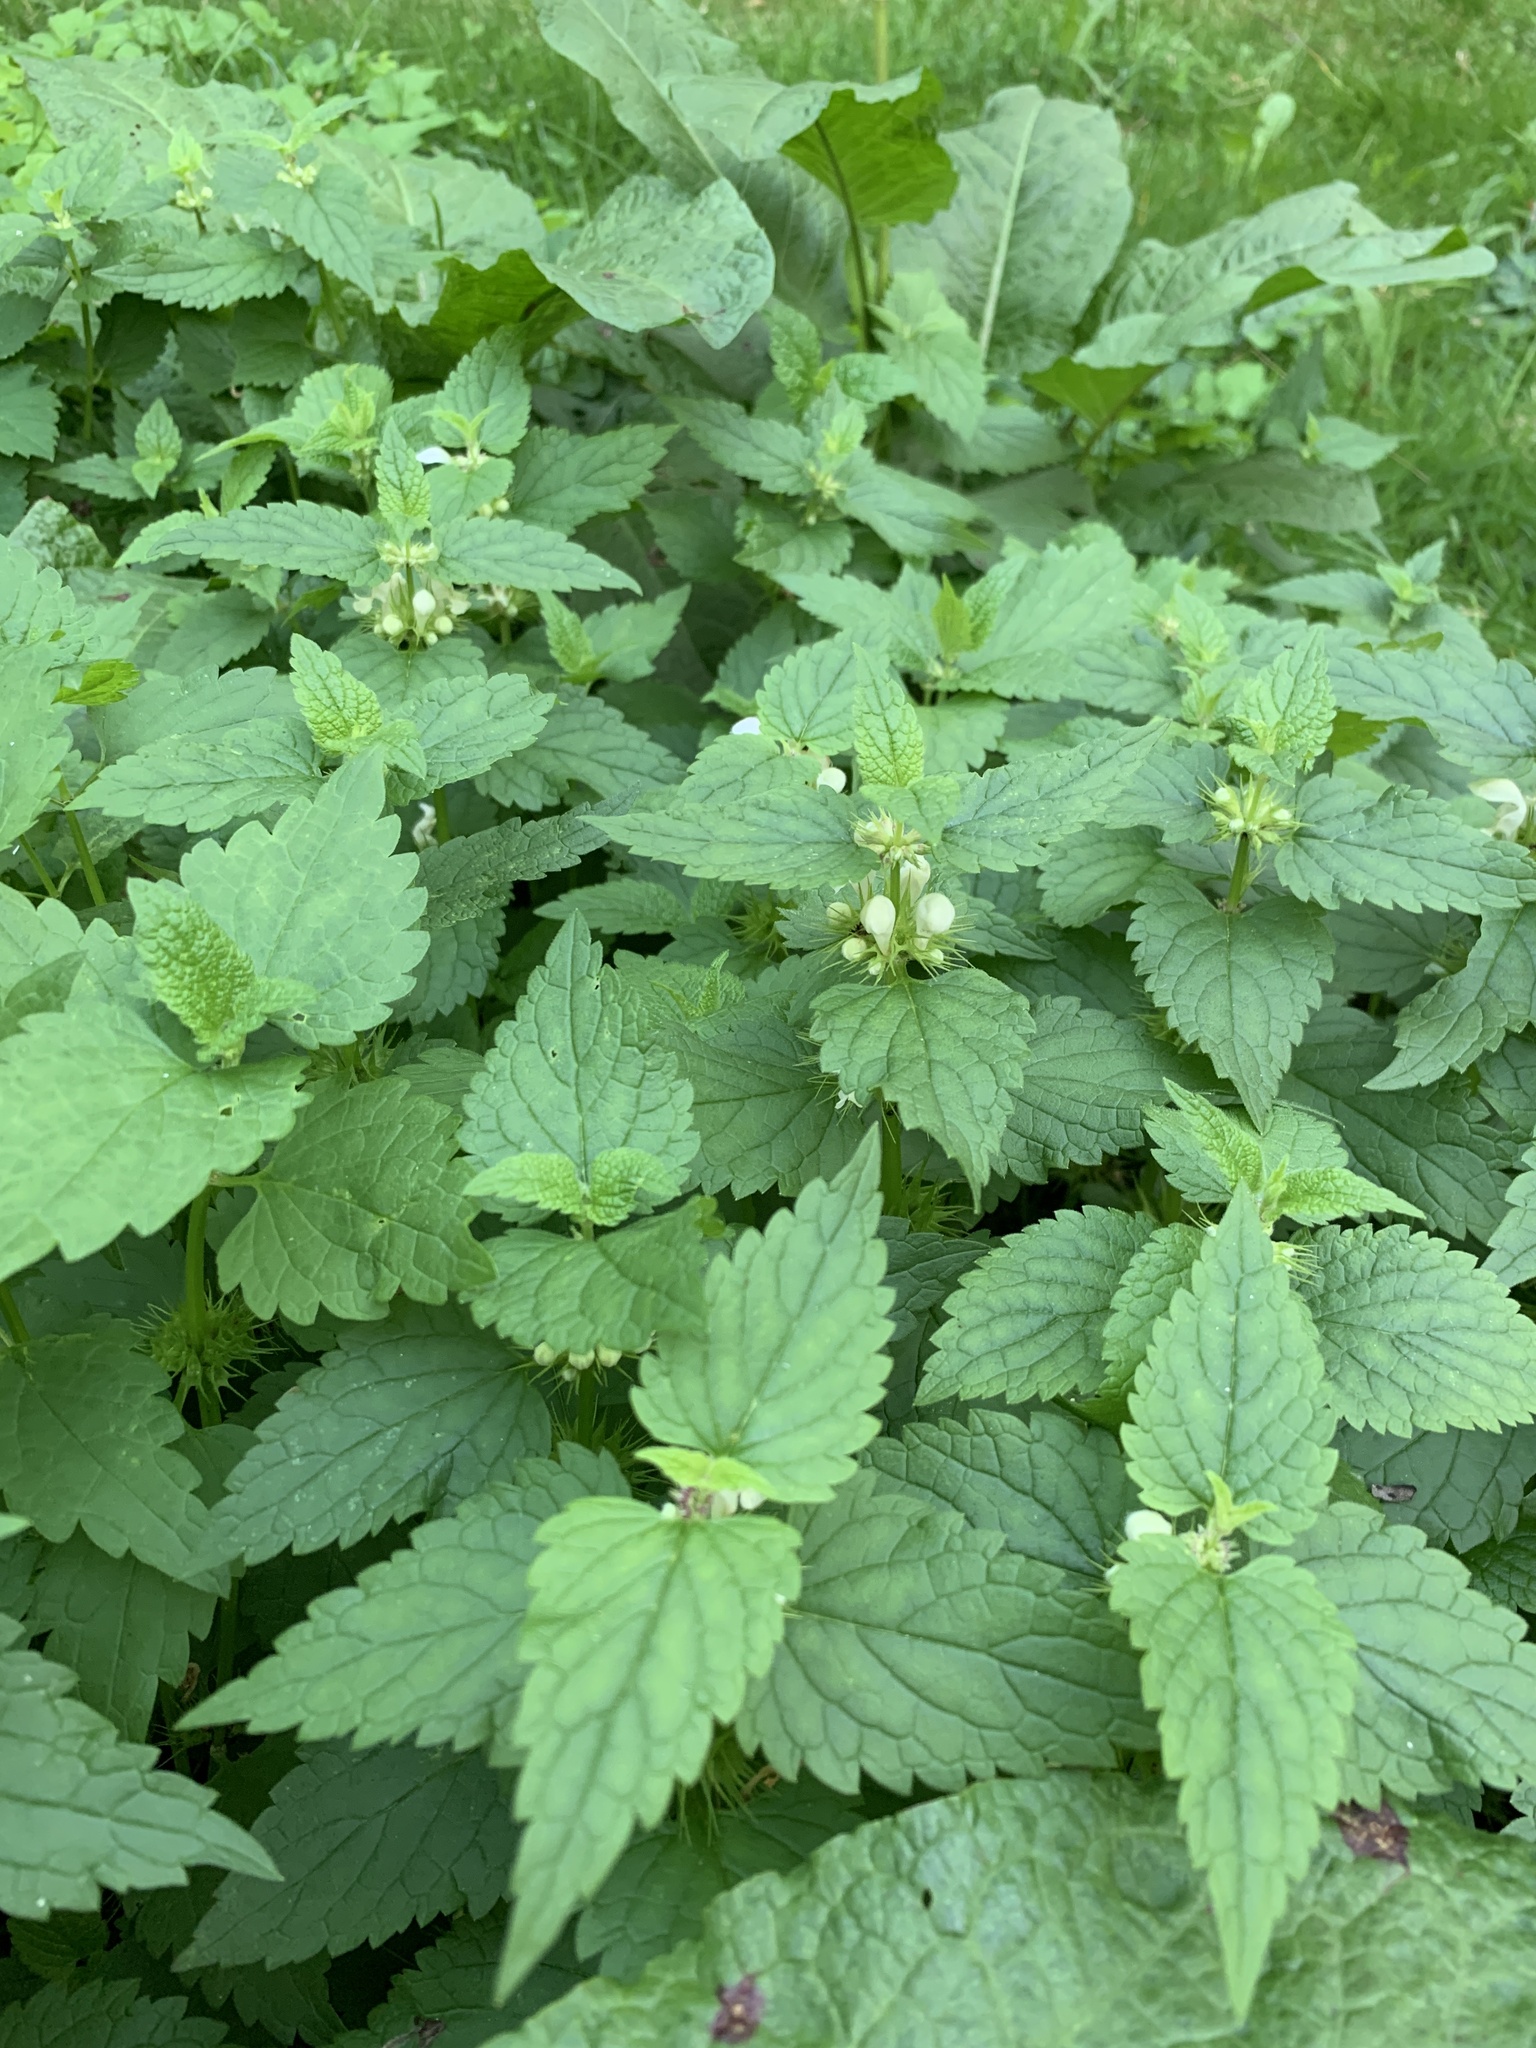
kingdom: Plantae
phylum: Tracheophyta
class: Magnoliopsida
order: Lamiales
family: Lamiaceae
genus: Lamium
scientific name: Lamium album
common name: White dead-nettle
